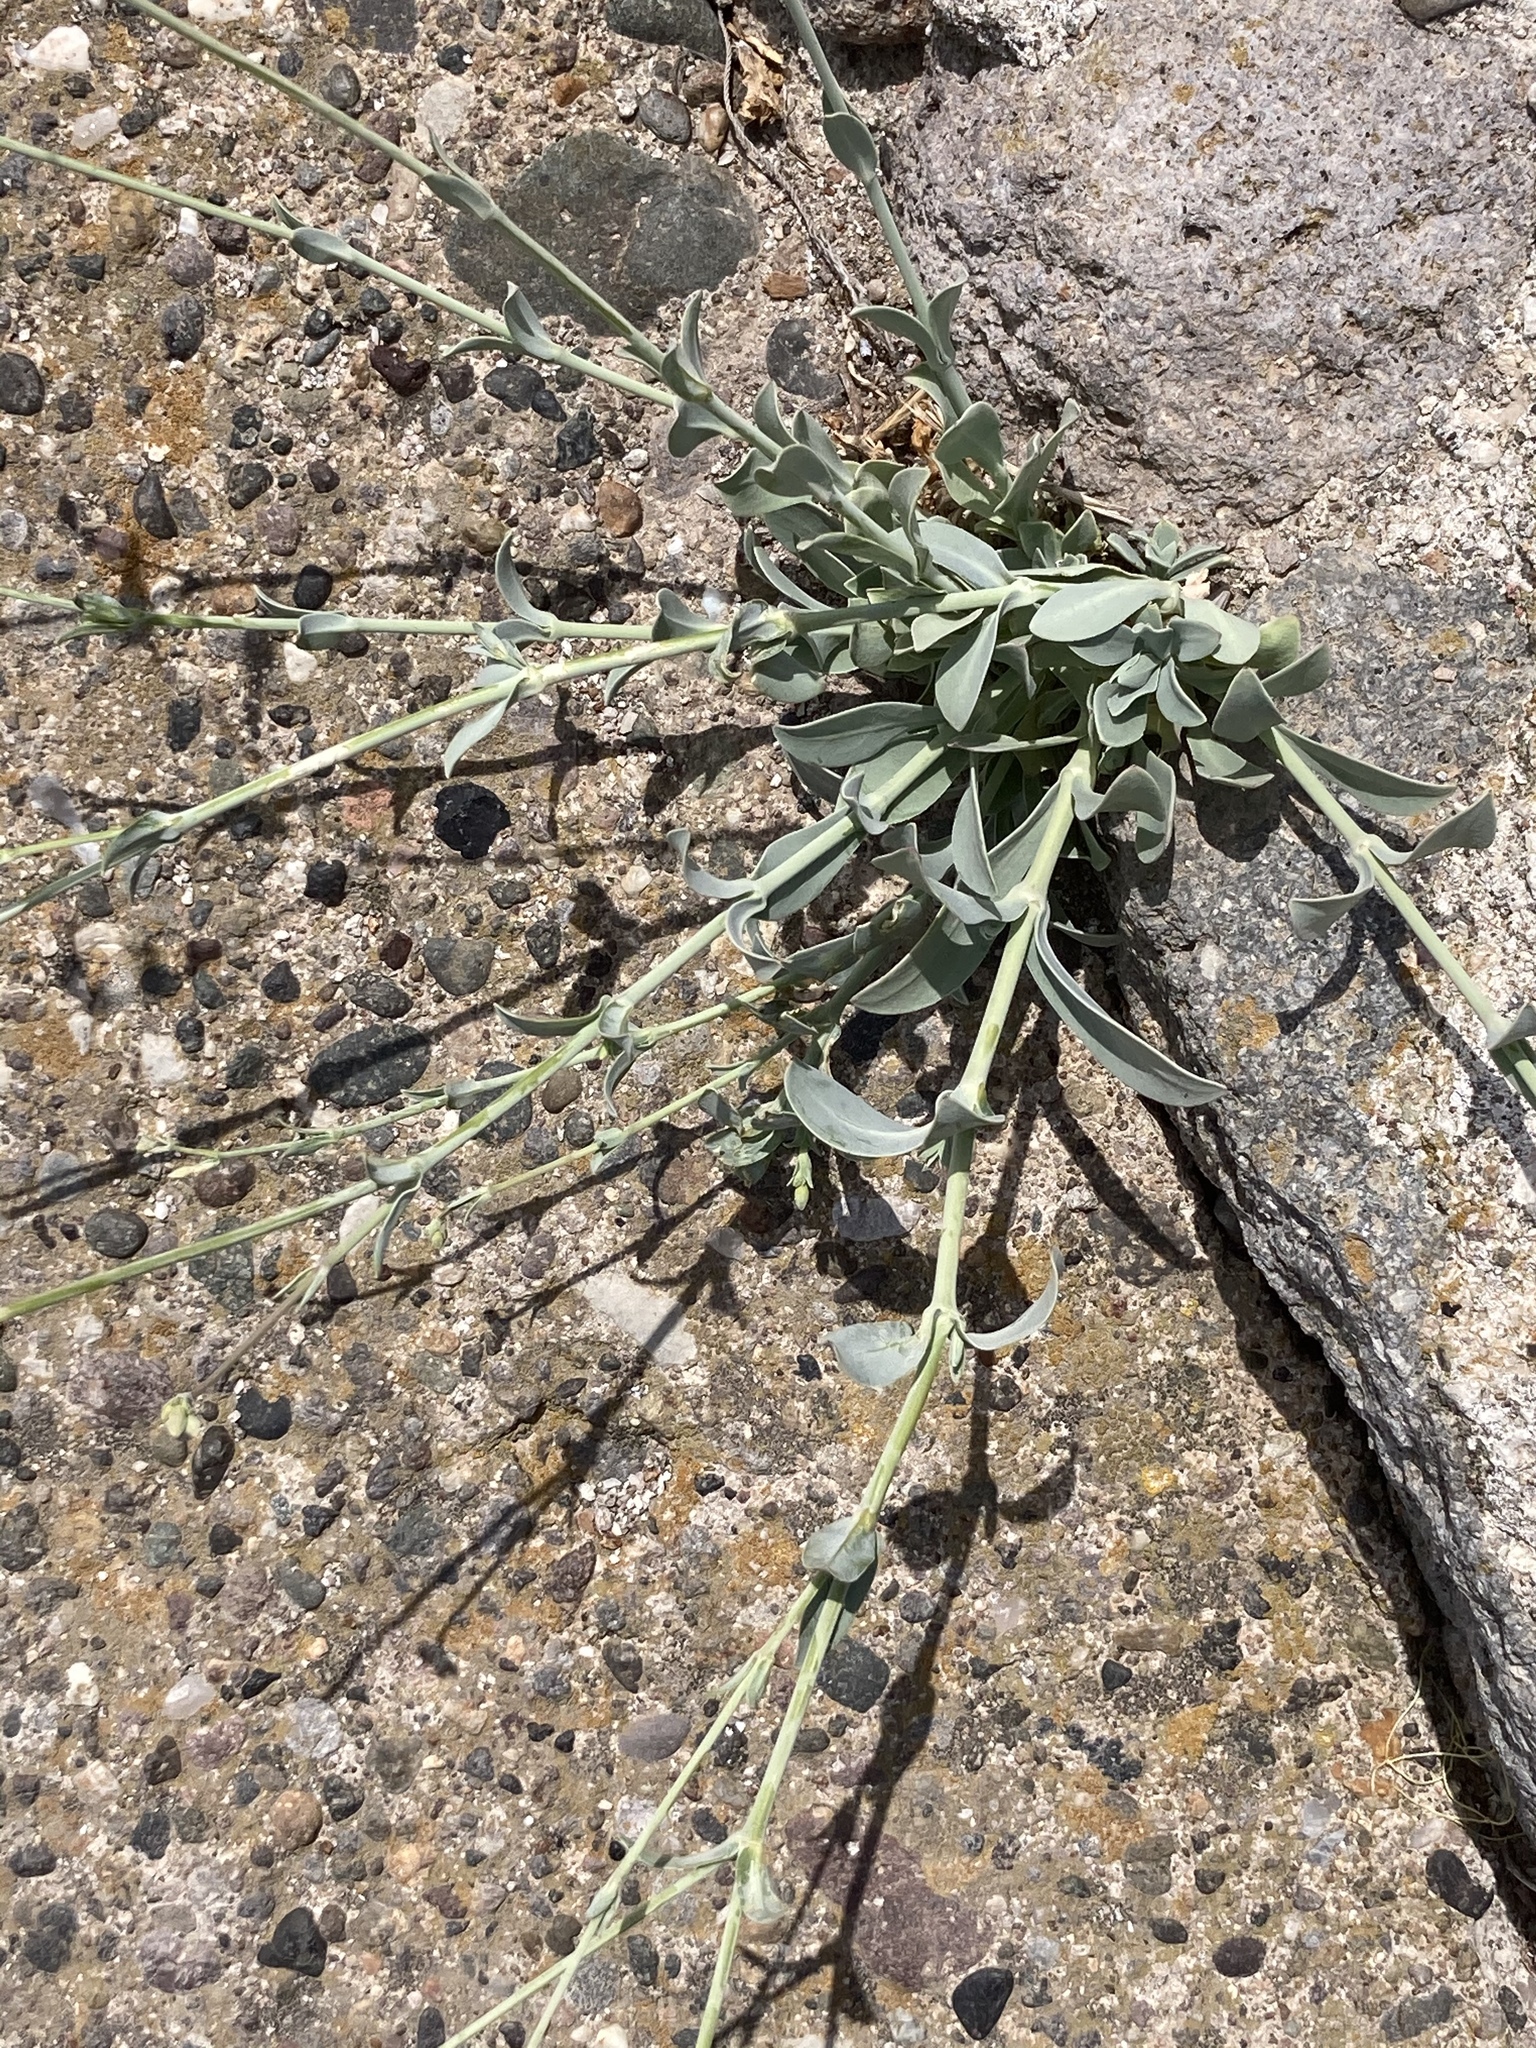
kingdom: Plantae
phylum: Tracheophyta
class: Magnoliopsida
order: Caryophyllales
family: Caryophyllaceae
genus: Silene
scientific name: Silene vulgaris
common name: Bladder campion
